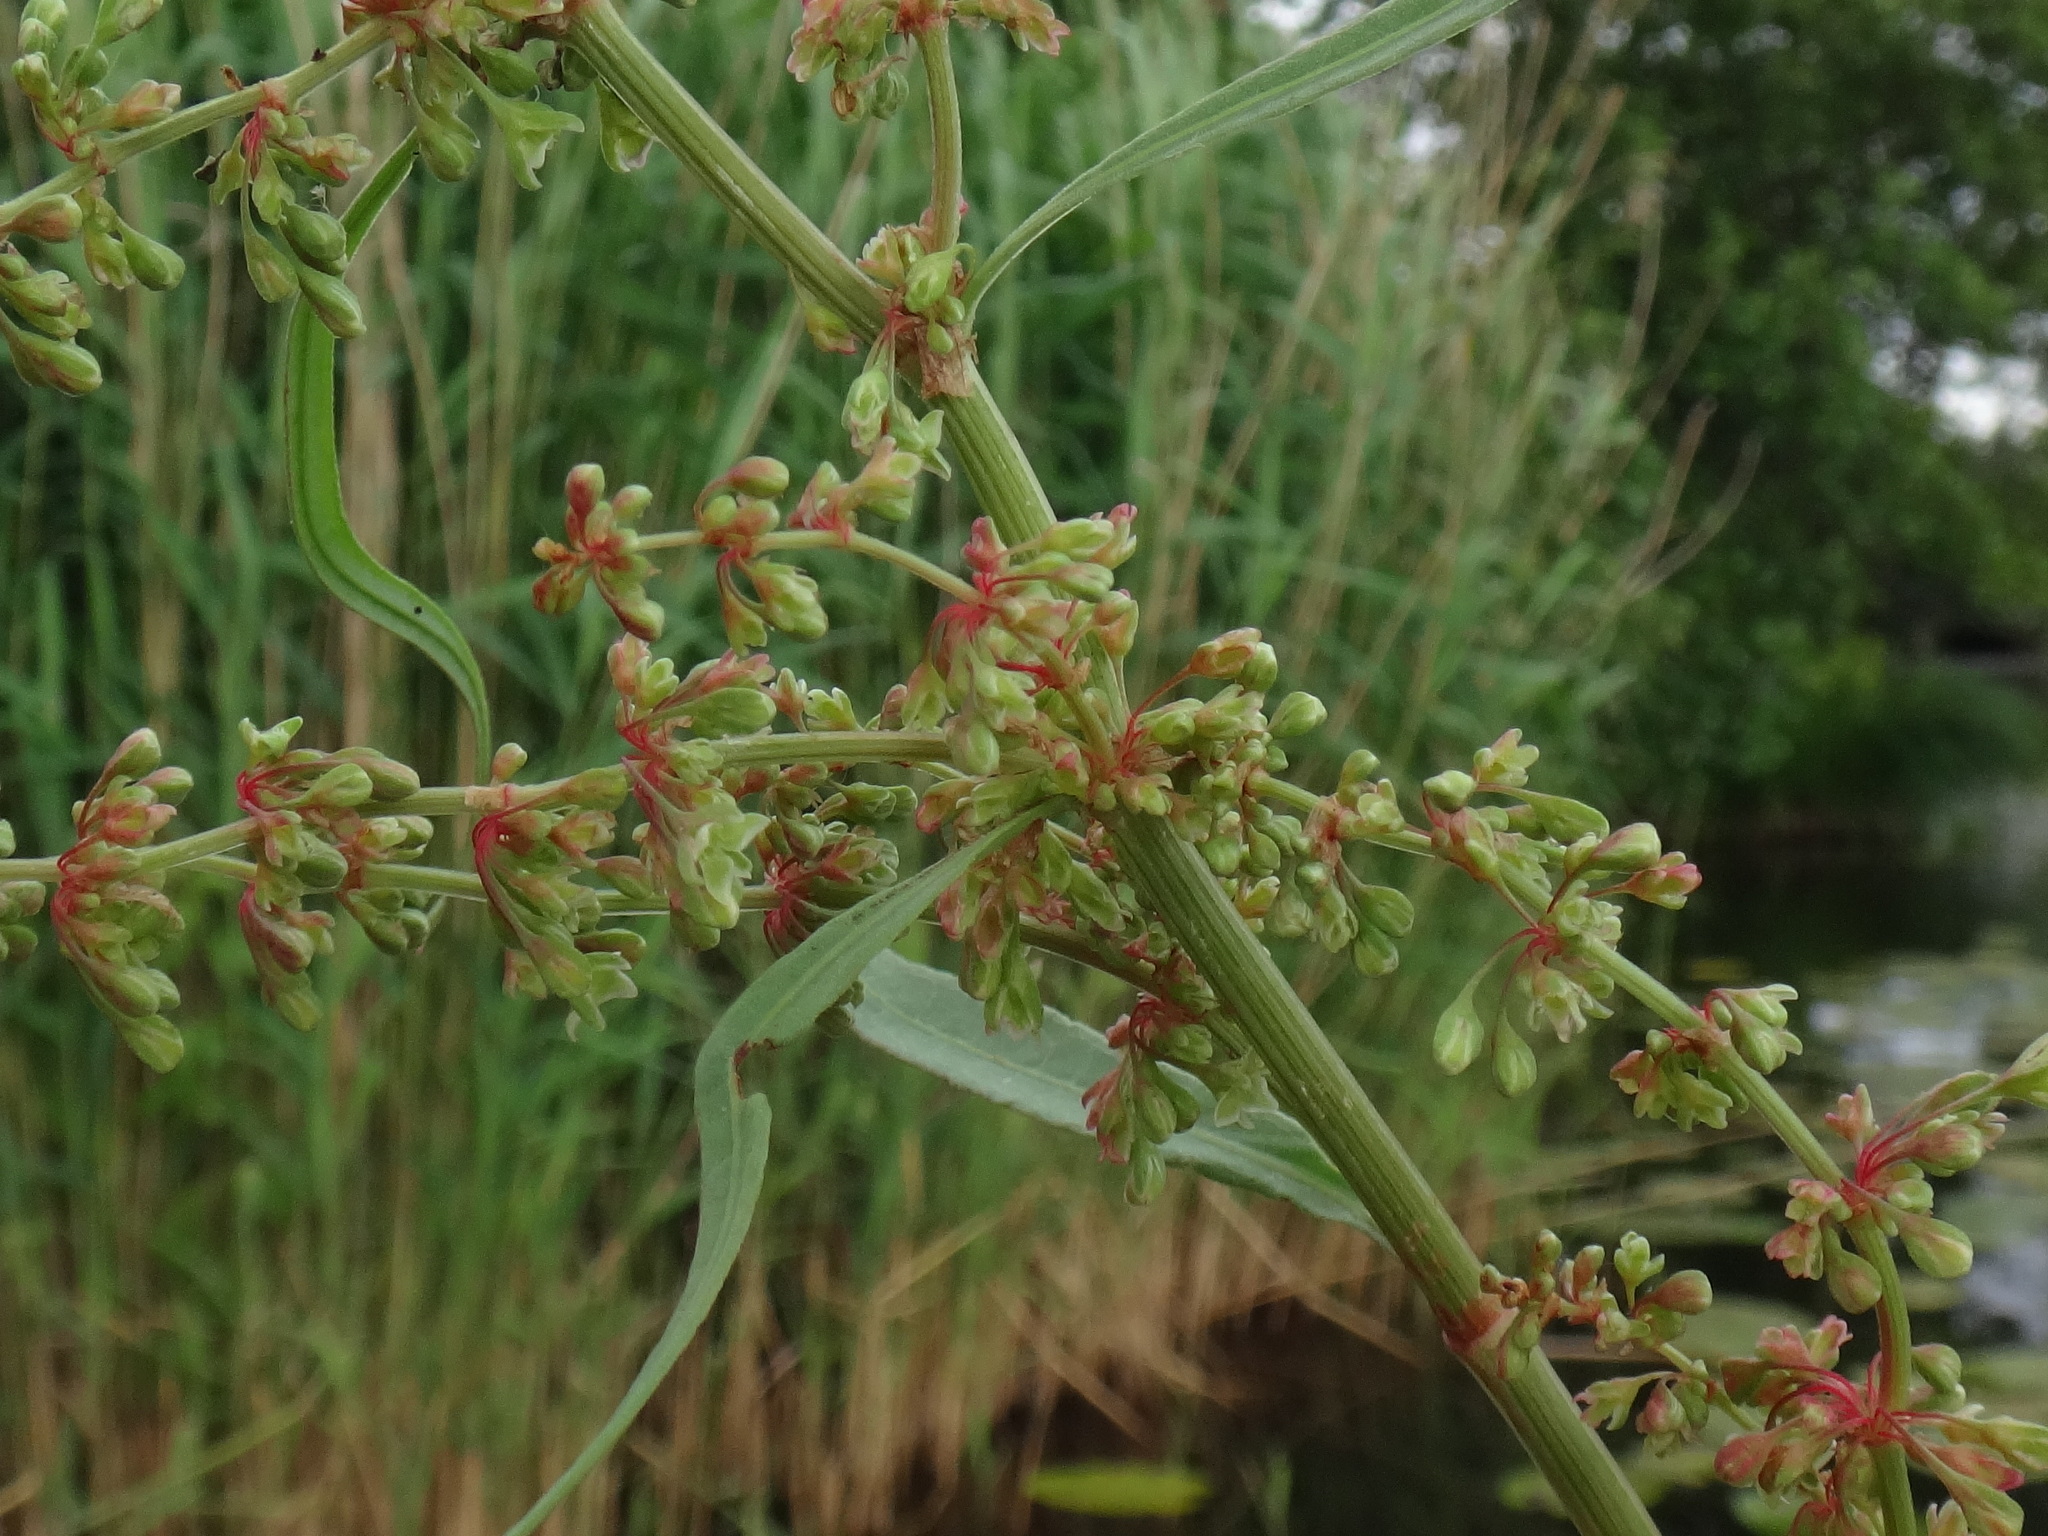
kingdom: Plantae
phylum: Tracheophyta
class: Magnoliopsida
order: Caryophyllales
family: Polygonaceae
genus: Rumex
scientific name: Rumex hydrolapathum
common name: Water dock
